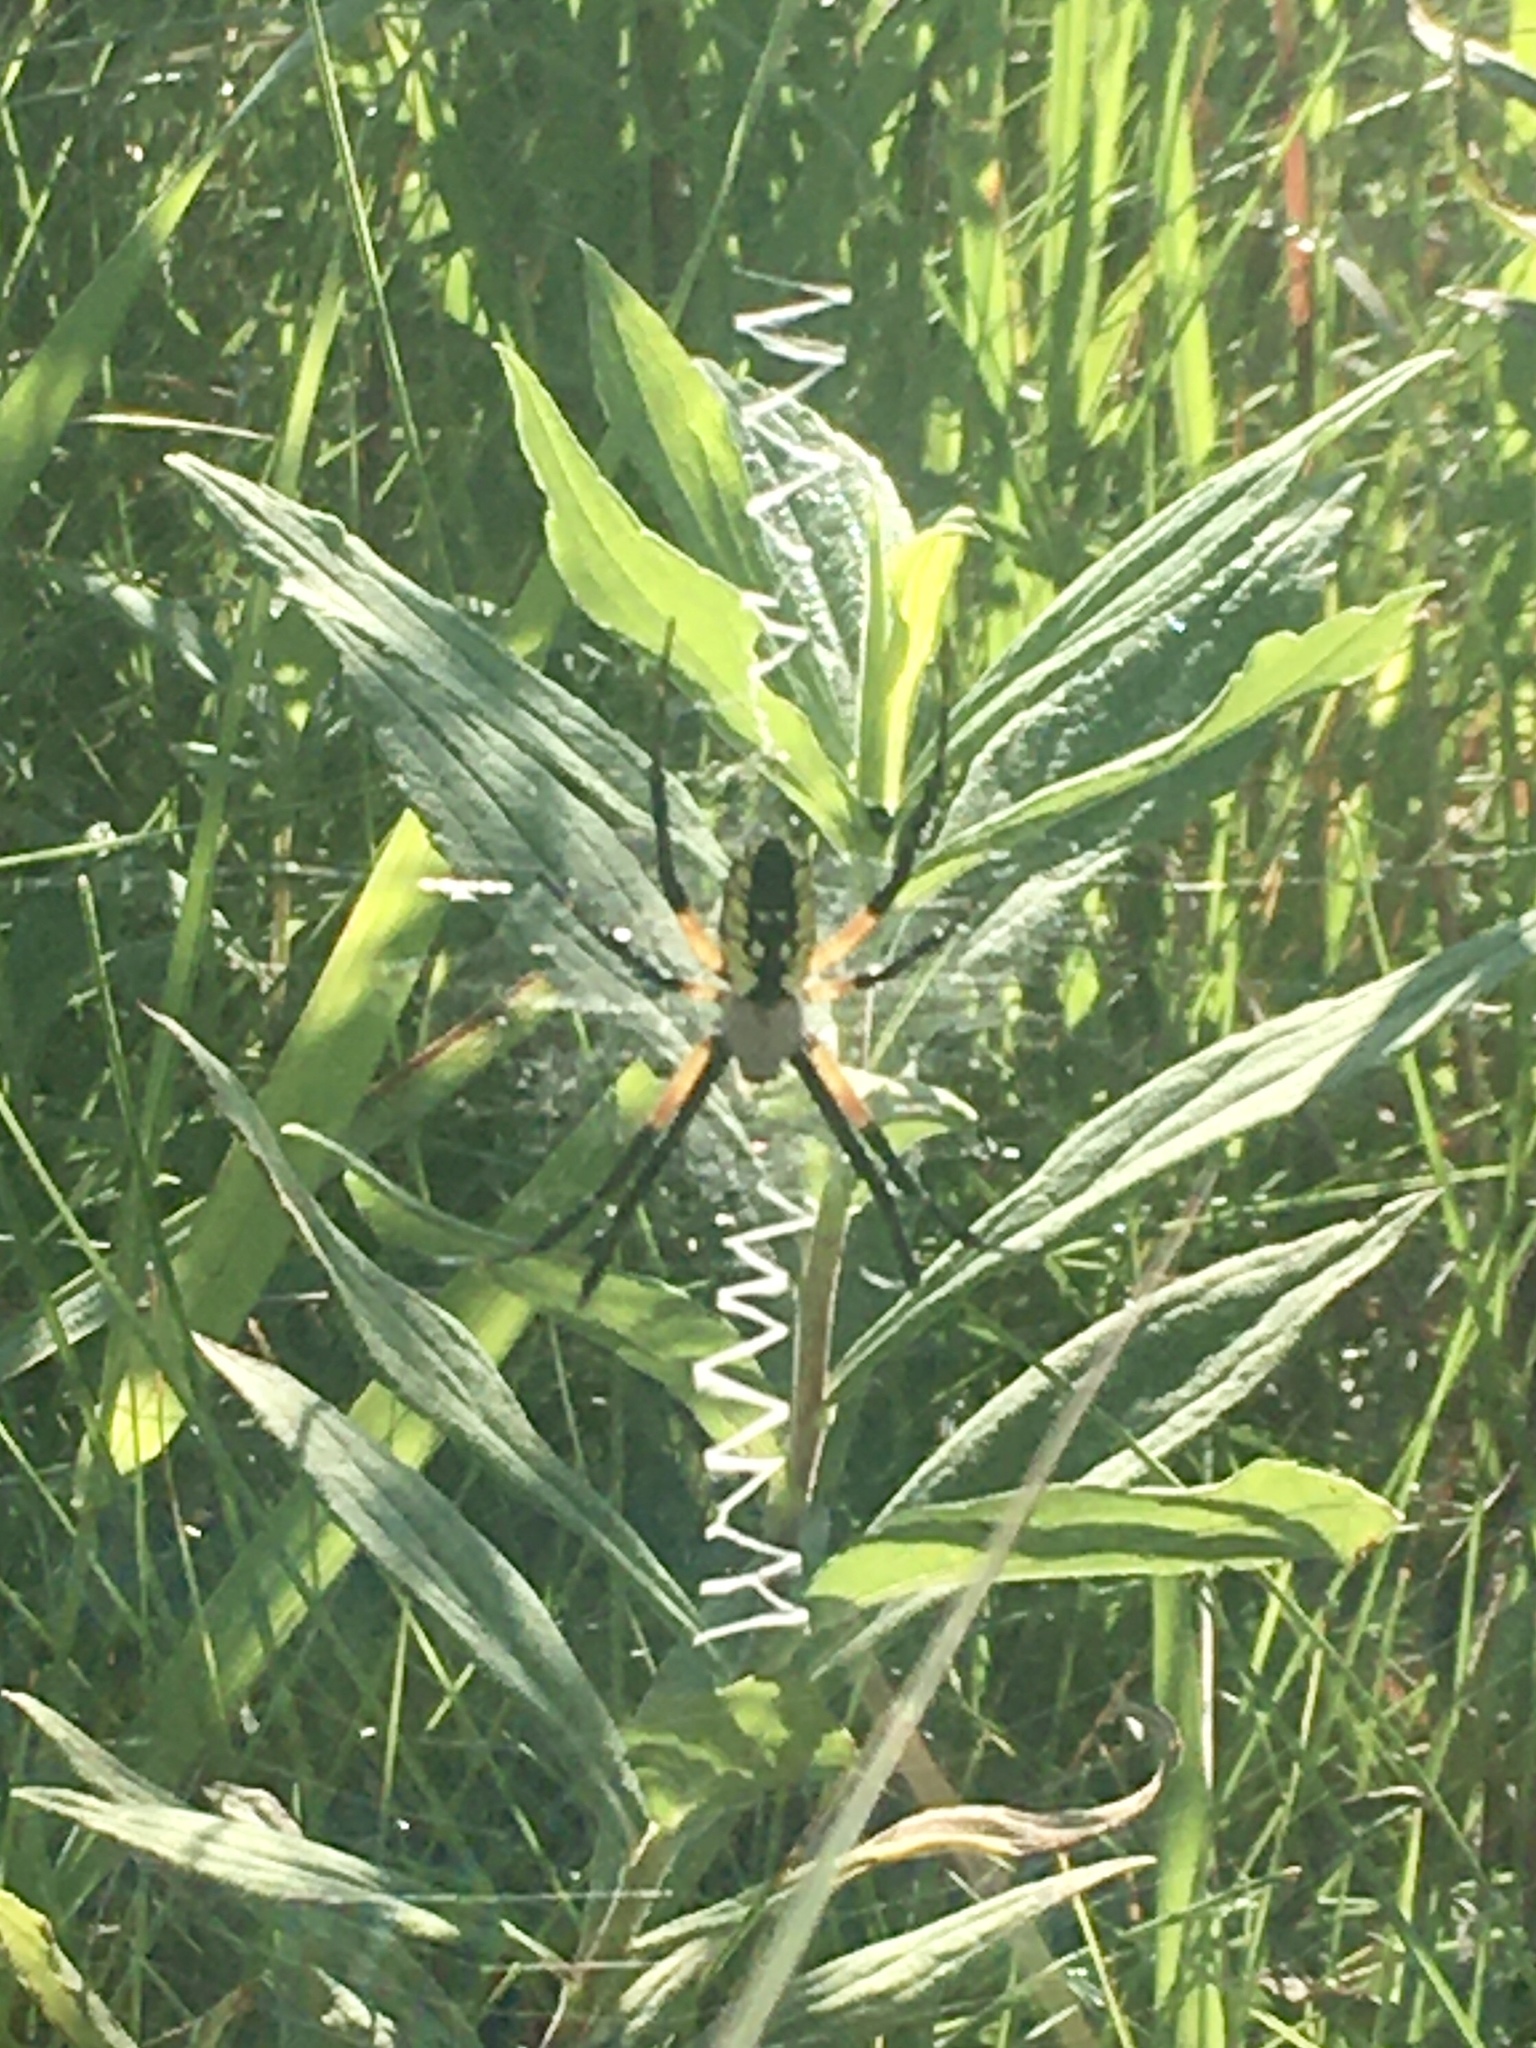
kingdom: Animalia
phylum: Arthropoda
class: Arachnida
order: Araneae
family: Araneidae
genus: Argiope
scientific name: Argiope aurantia
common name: Orb weavers
